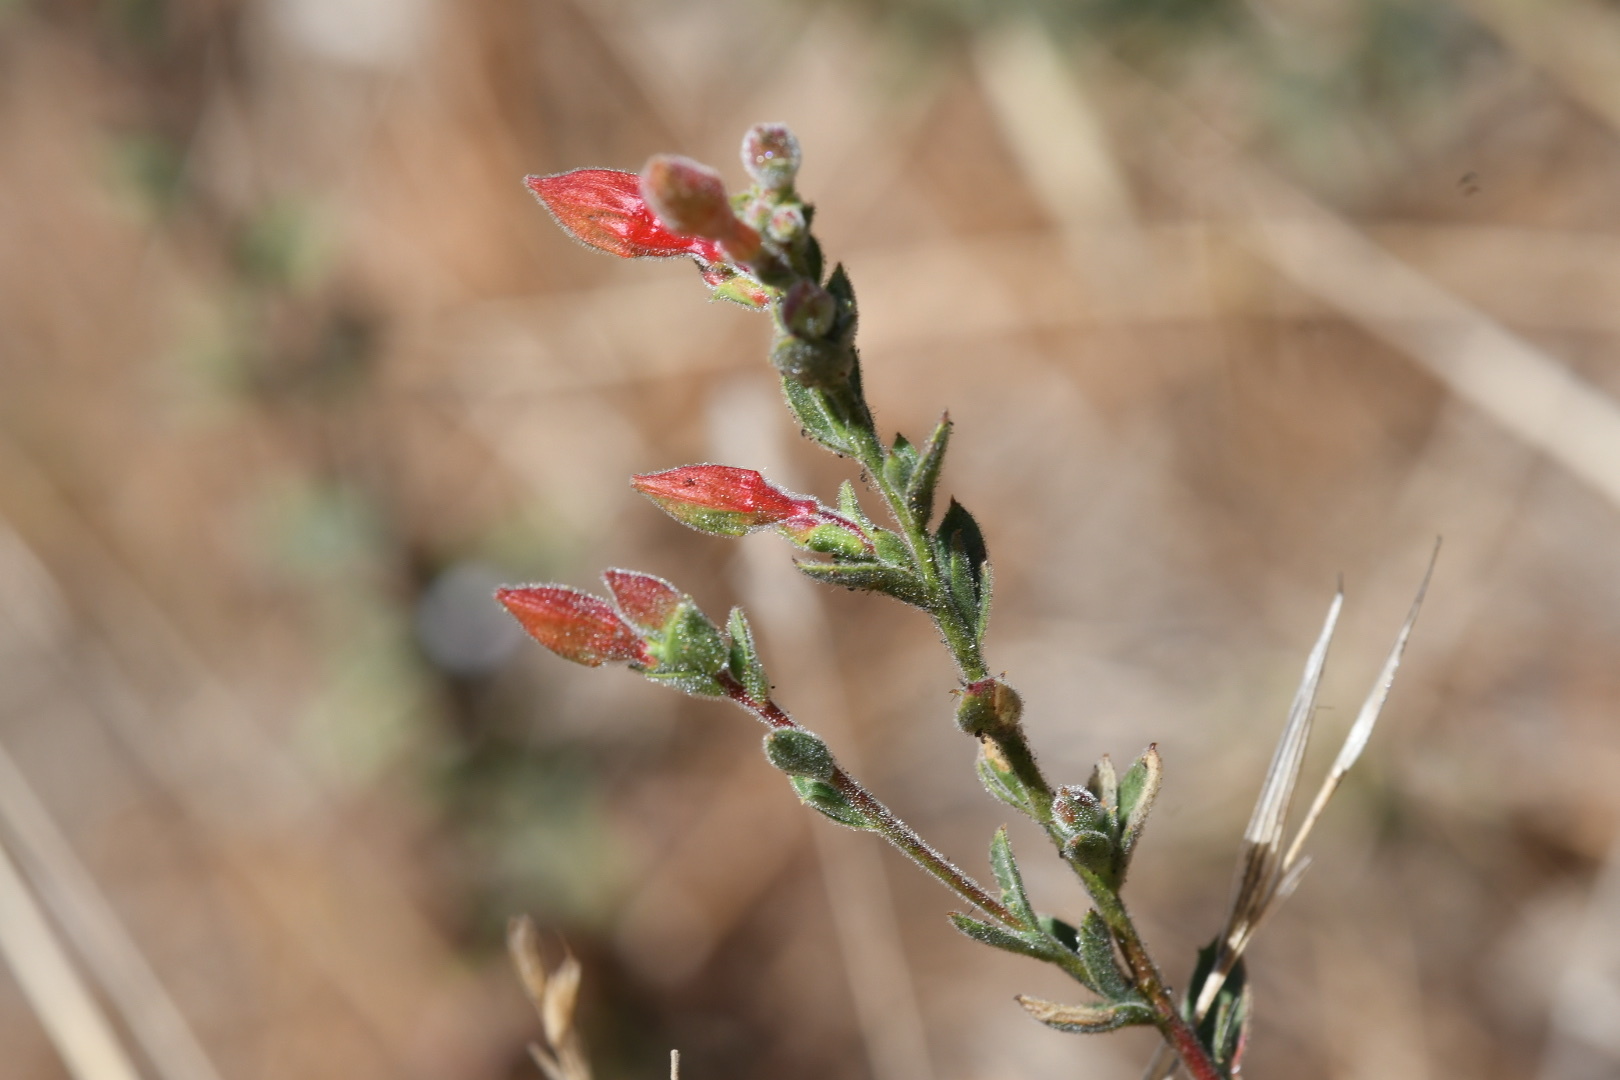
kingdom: Plantae
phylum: Tracheophyta
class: Magnoliopsida
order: Myrtales
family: Onagraceae
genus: Epilobium
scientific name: Epilobium canum
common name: California-fuchsia
